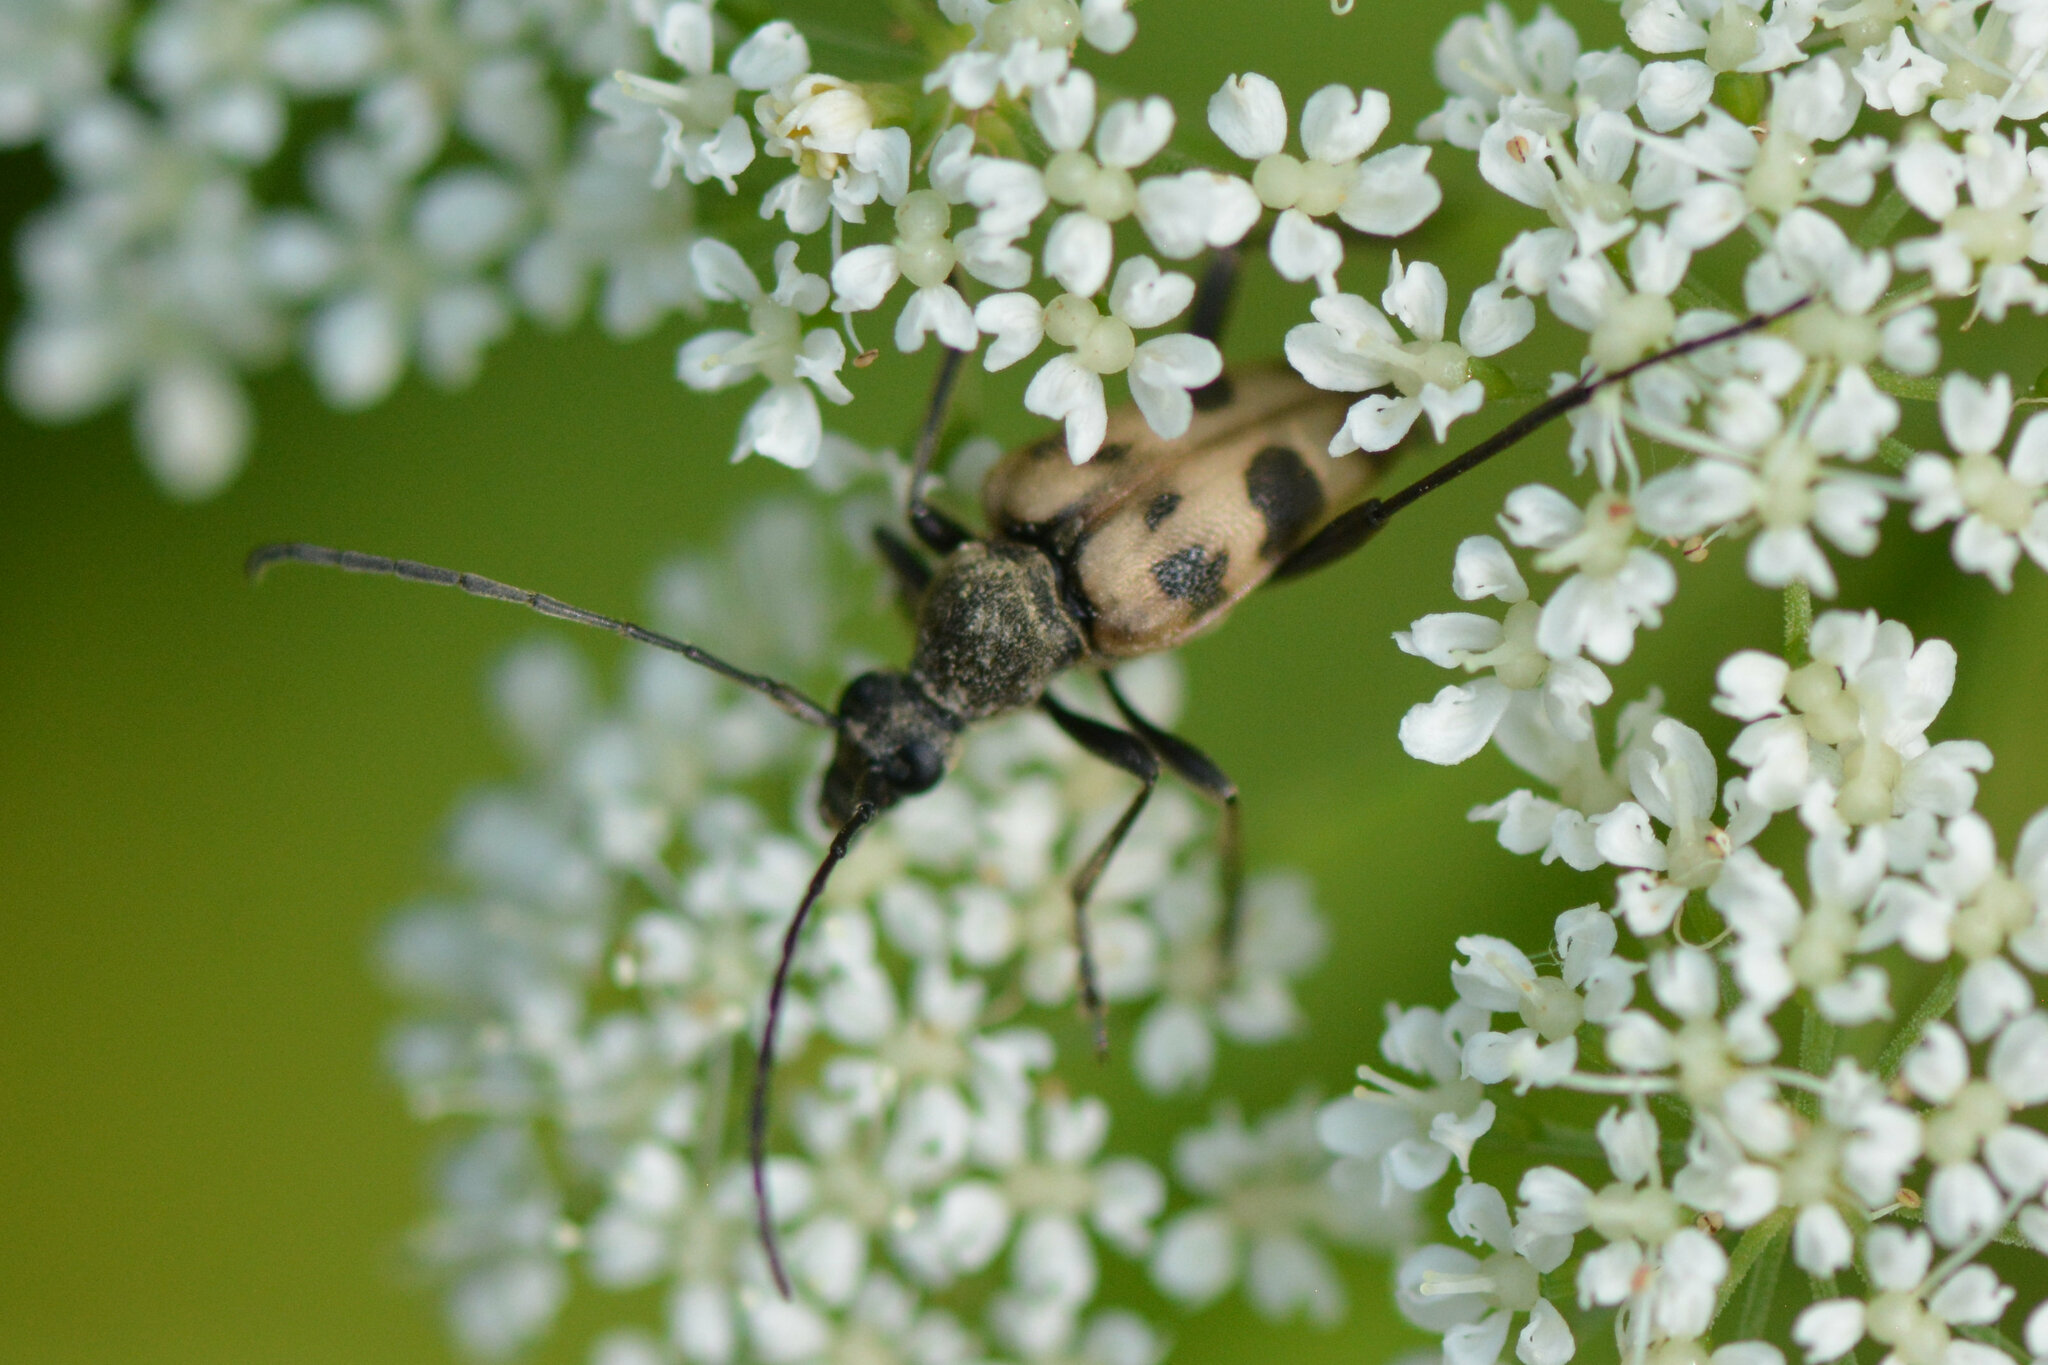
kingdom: Animalia
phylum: Arthropoda
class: Insecta
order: Coleoptera
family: Cerambycidae
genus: Pachytodes
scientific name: Pachytodes cerambyciformis
